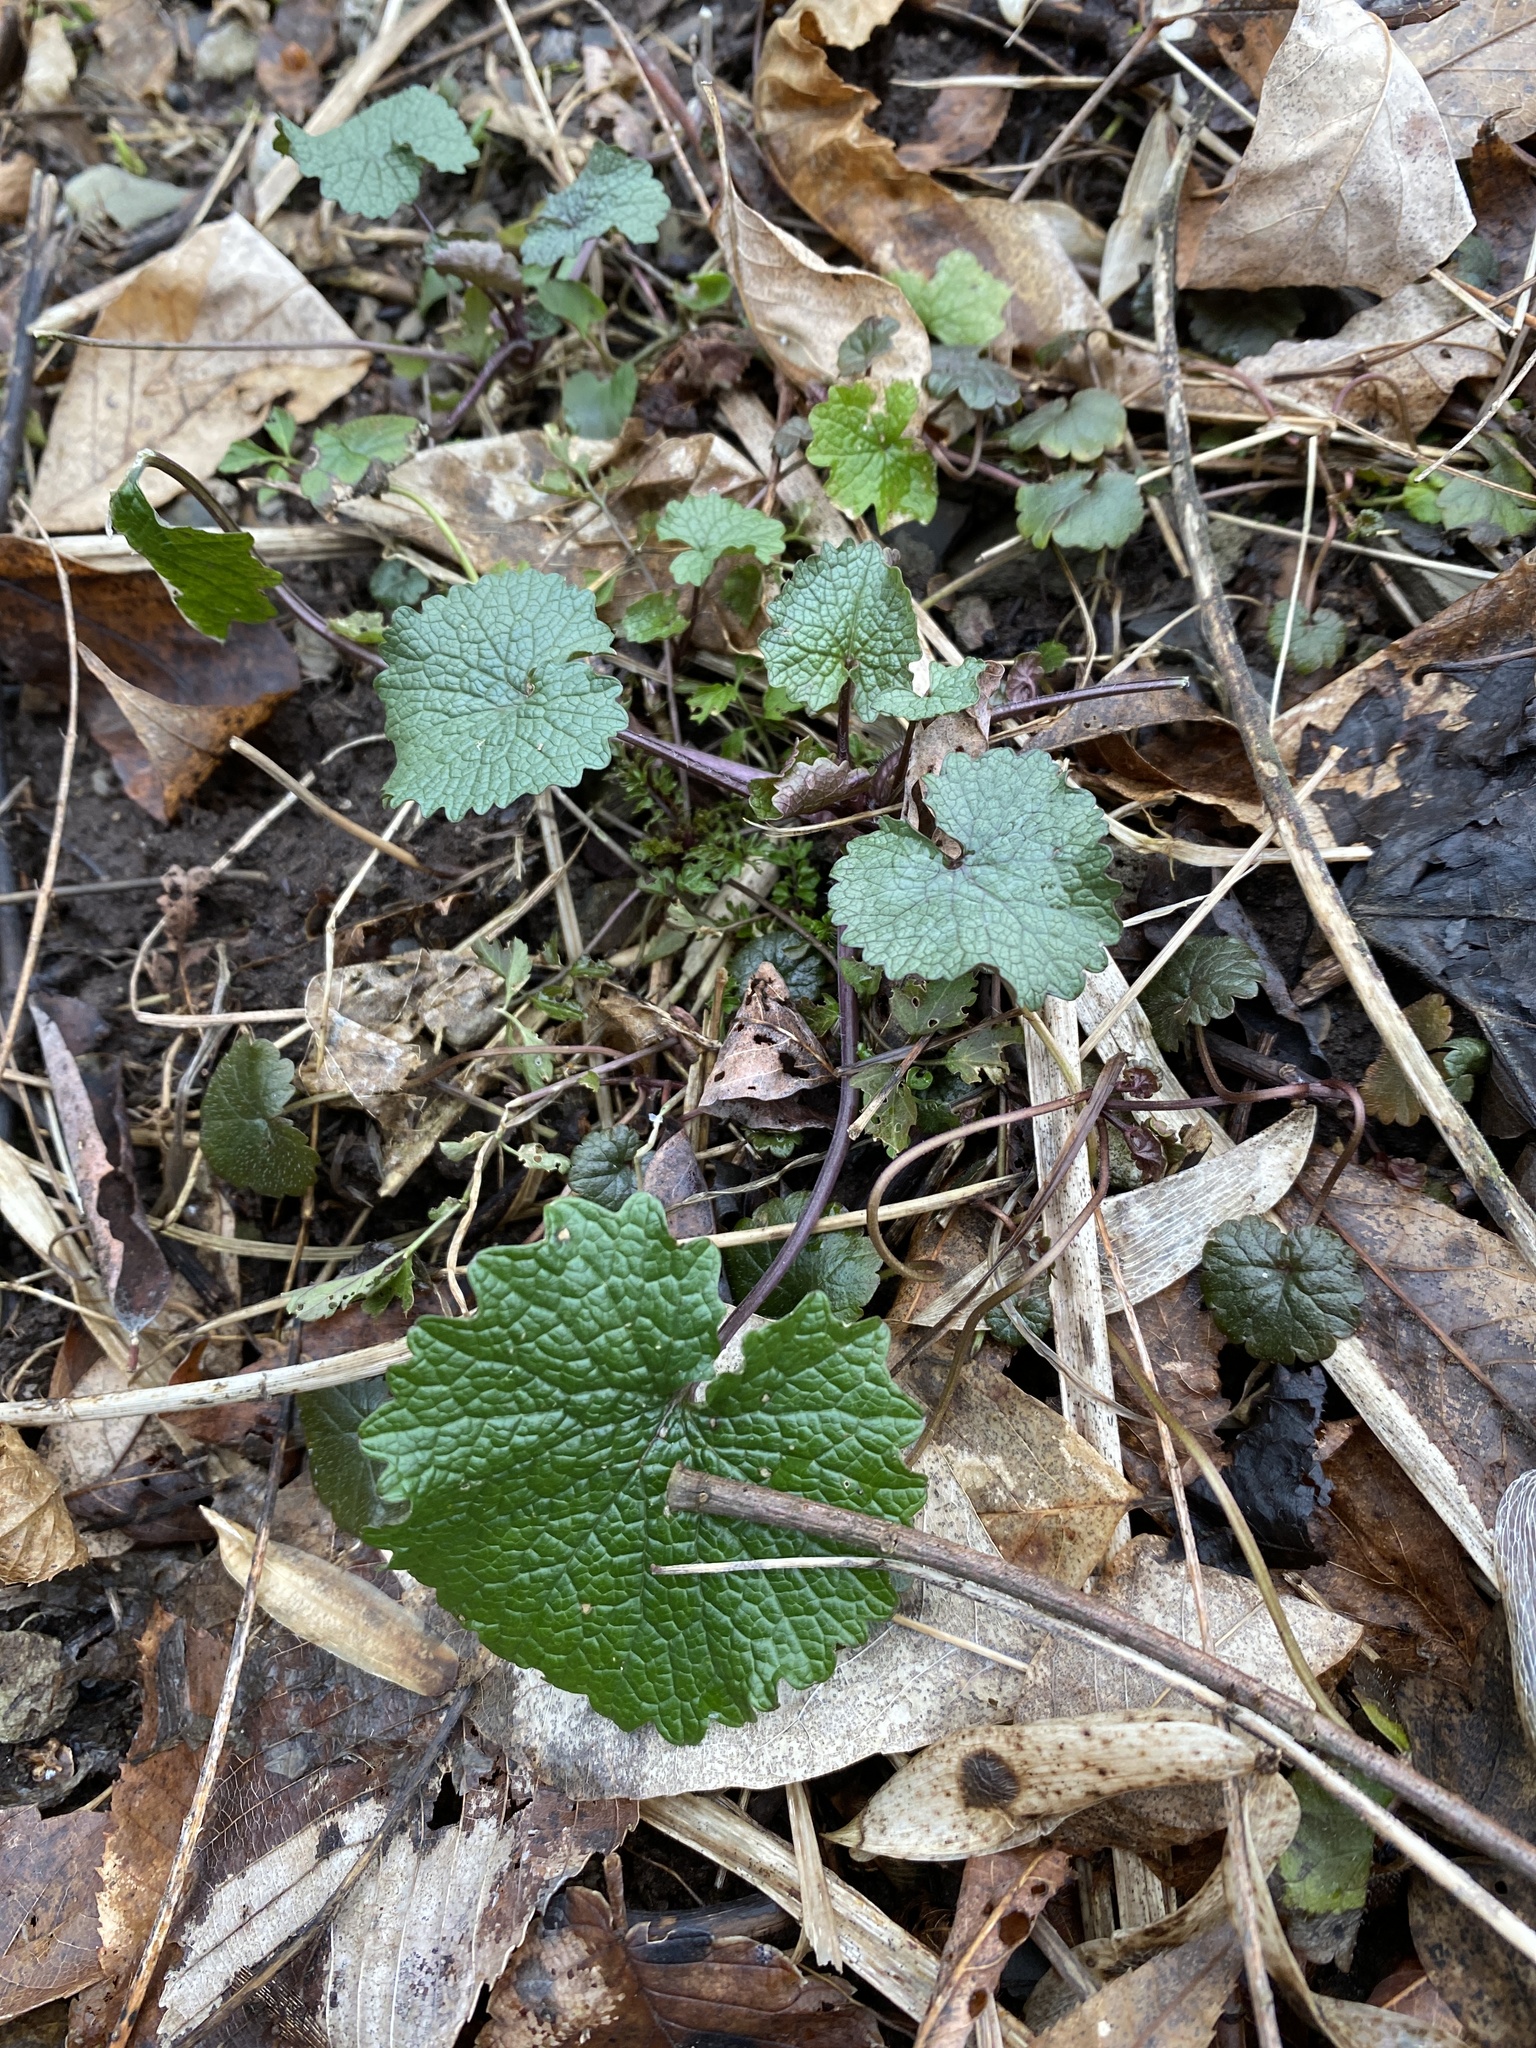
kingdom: Plantae
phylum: Tracheophyta
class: Magnoliopsida
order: Brassicales
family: Brassicaceae
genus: Alliaria
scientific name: Alliaria petiolata
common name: Garlic mustard
